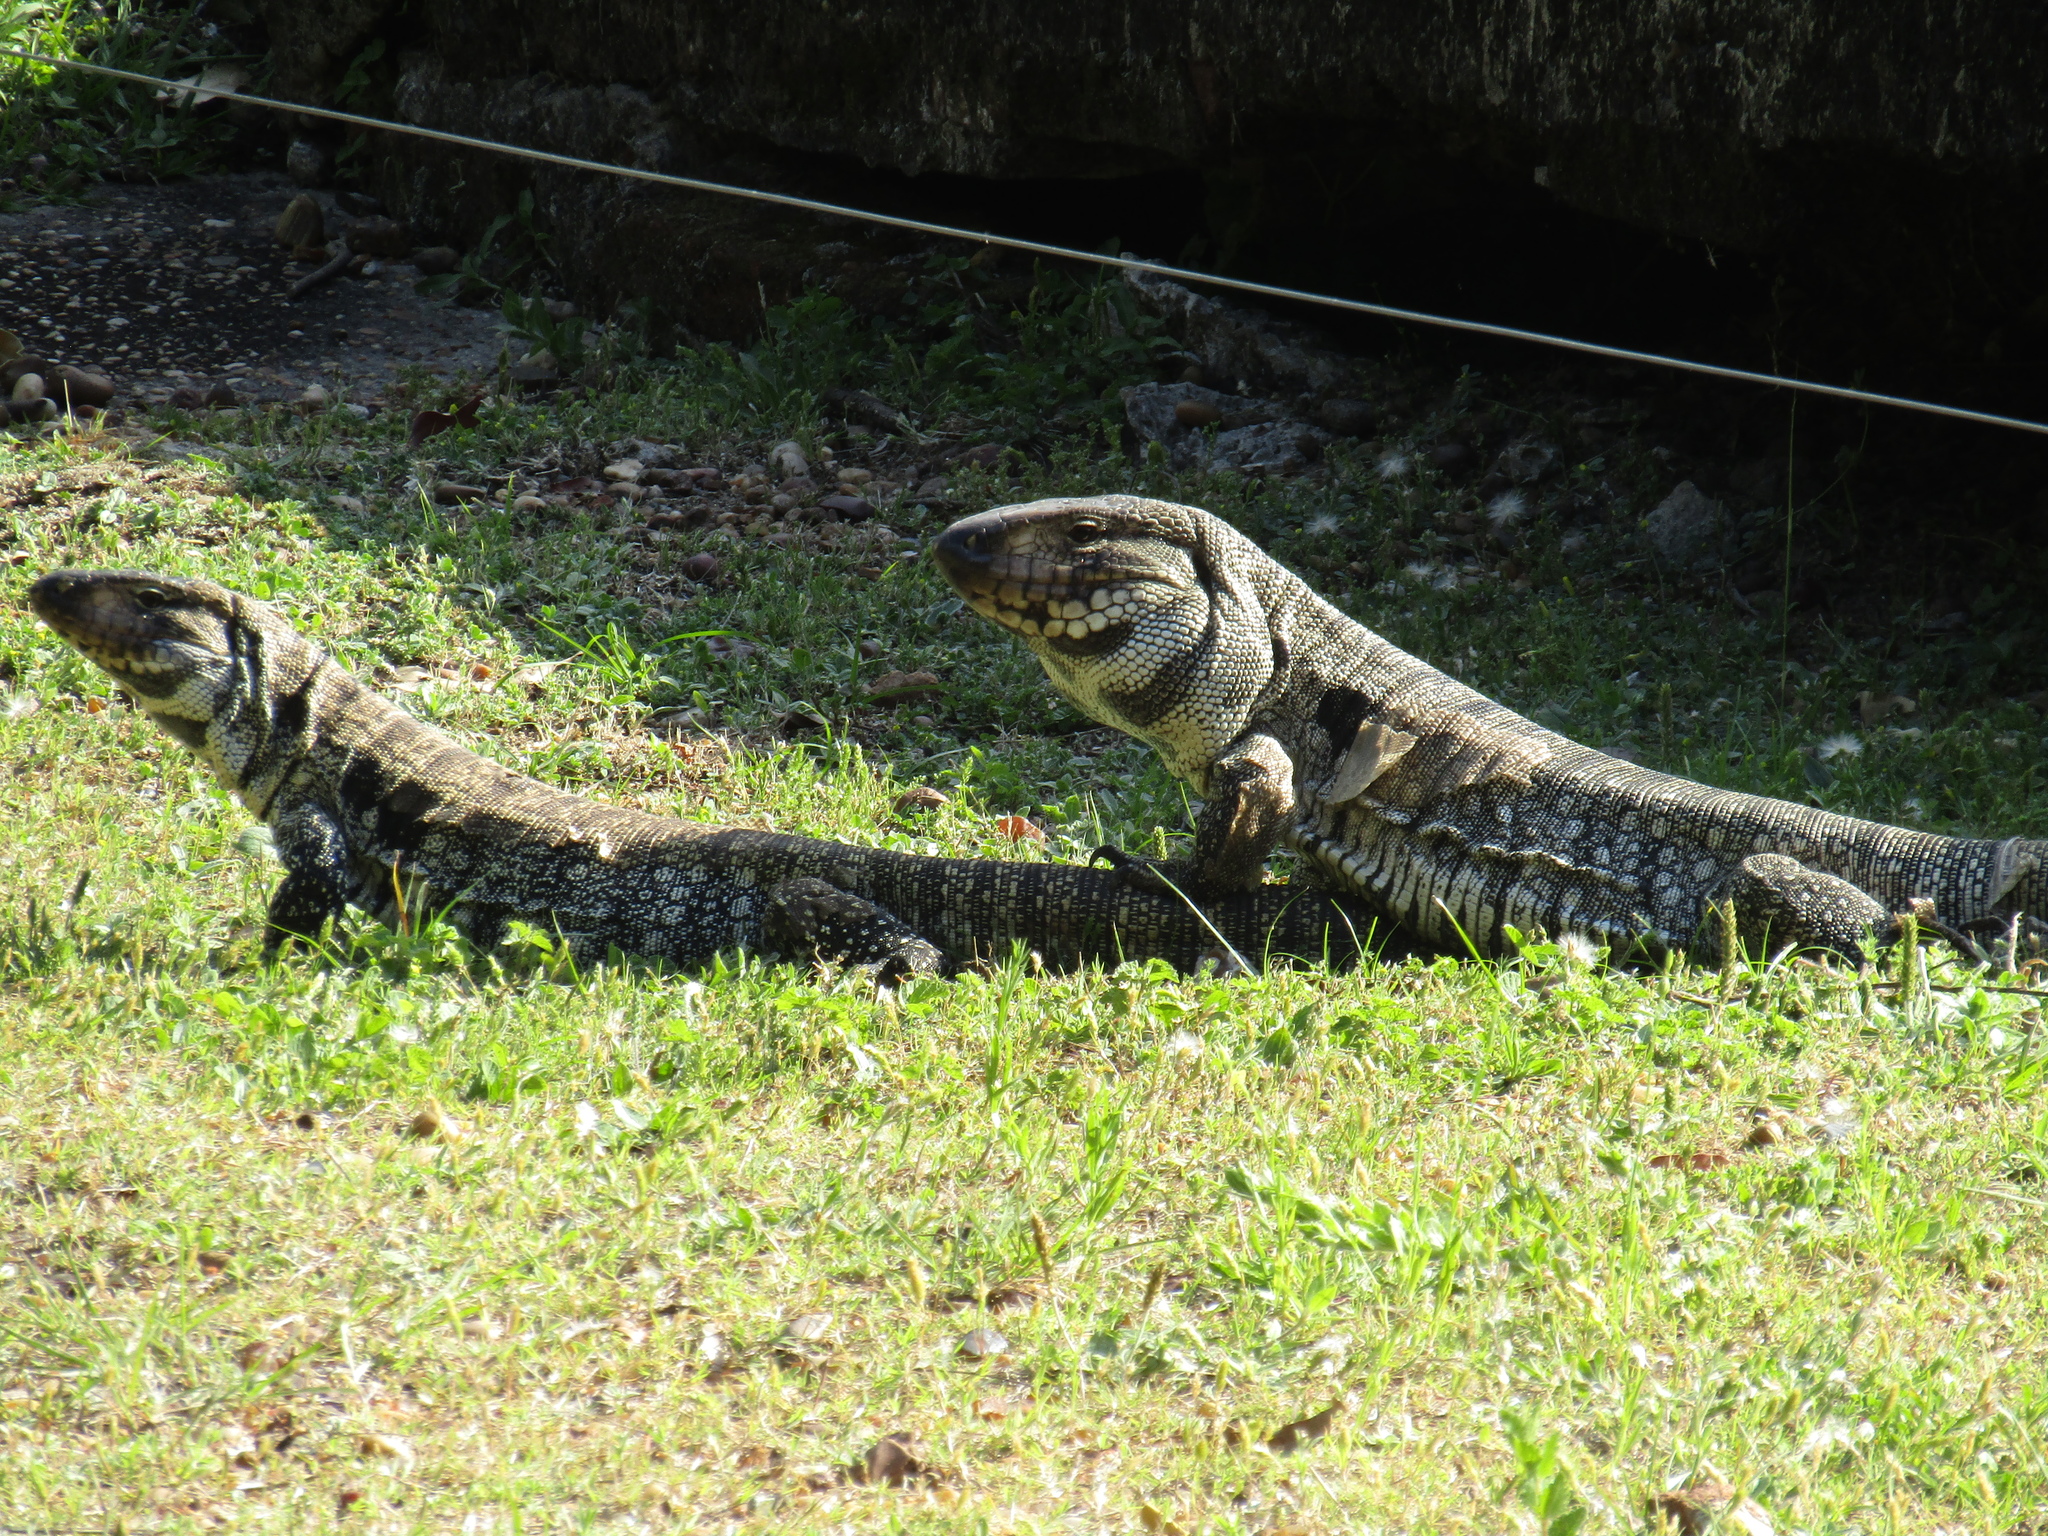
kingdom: Animalia
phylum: Chordata
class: Squamata
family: Teiidae
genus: Salvator
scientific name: Salvator merianae
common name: Argentine black and white tegu
